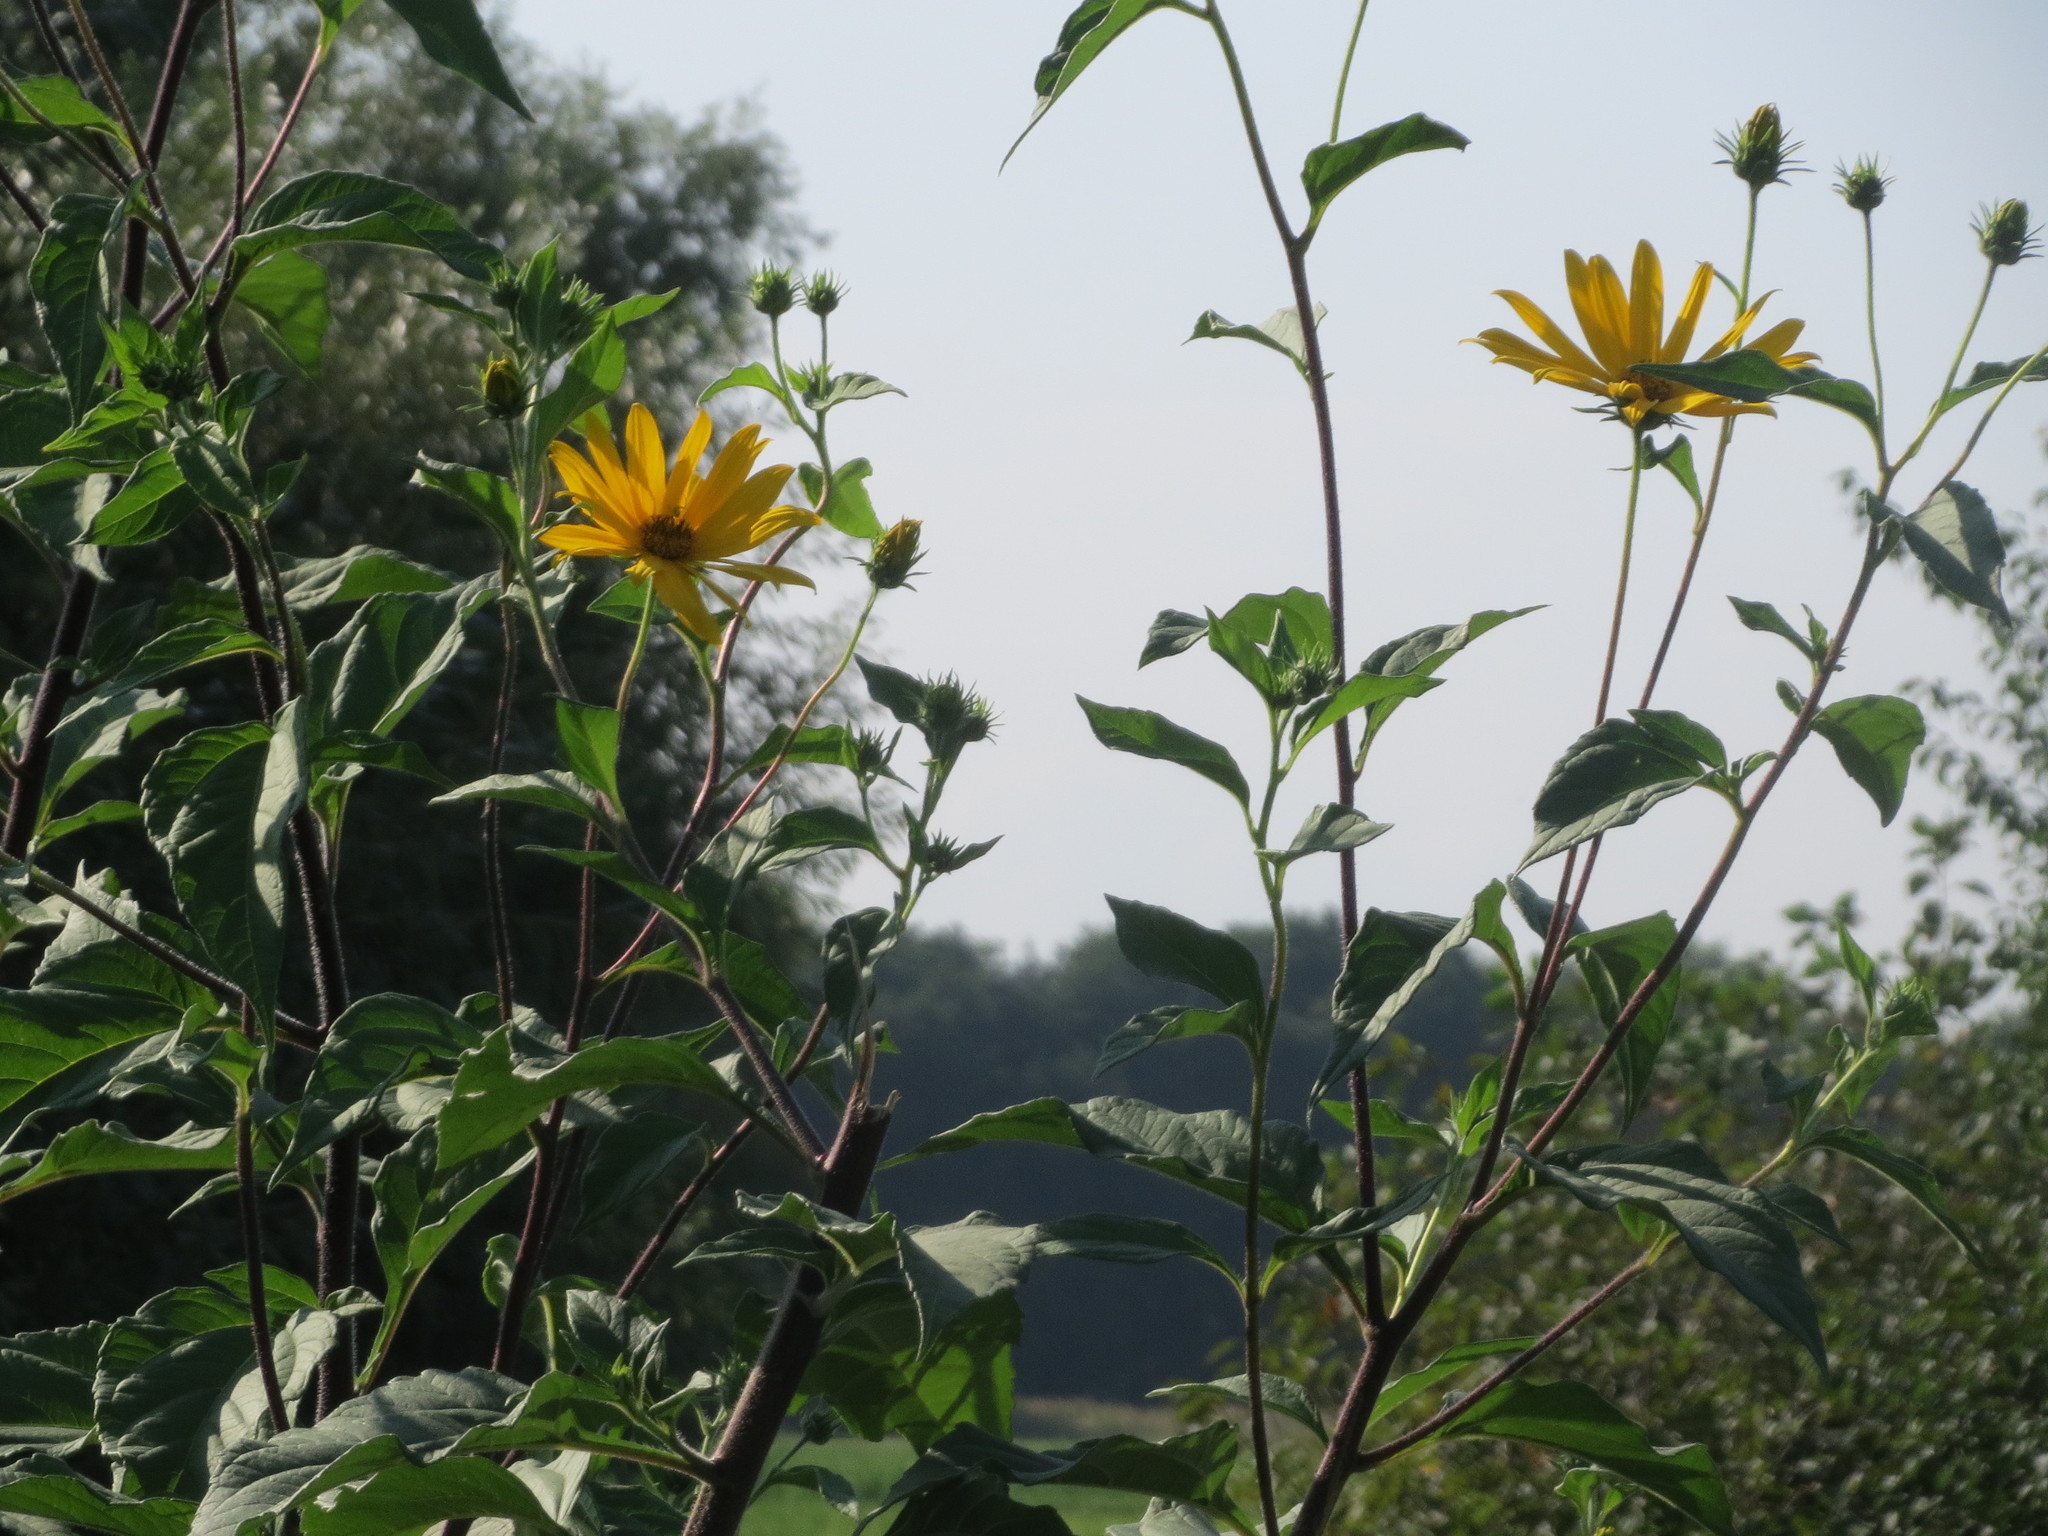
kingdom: Plantae
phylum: Tracheophyta
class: Magnoliopsida
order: Asterales
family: Asteraceae
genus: Helianthus
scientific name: Helianthus tuberosus
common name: Jerusalem artichoke
